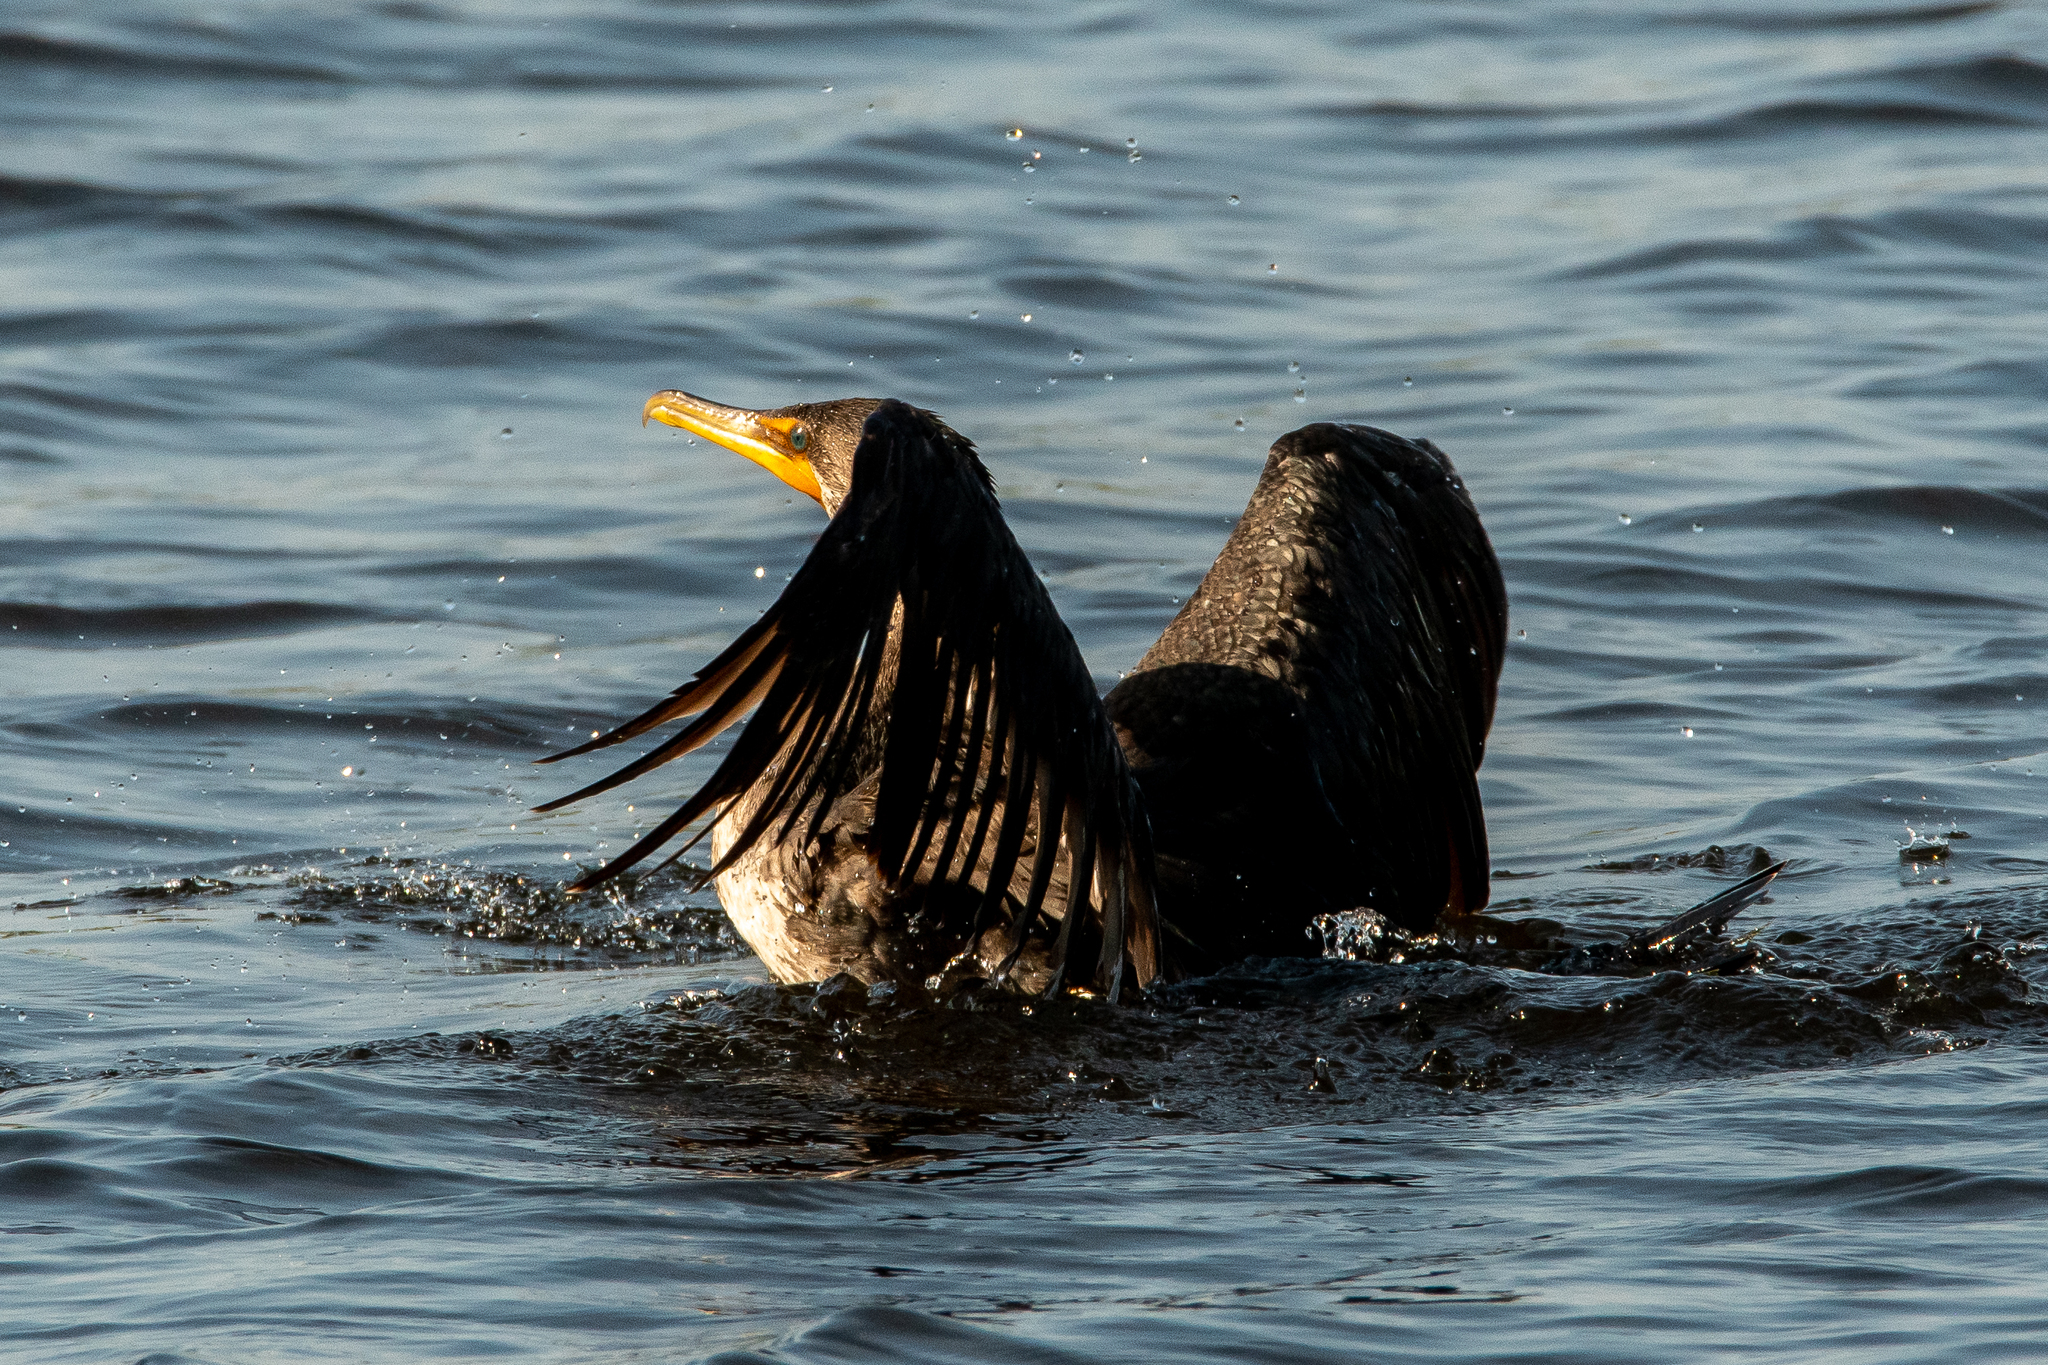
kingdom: Animalia
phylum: Chordata
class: Aves
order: Suliformes
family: Phalacrocoracidae
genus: Phalacrocorax
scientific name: Phalacrocorax auritus
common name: Double-crested cormorant
